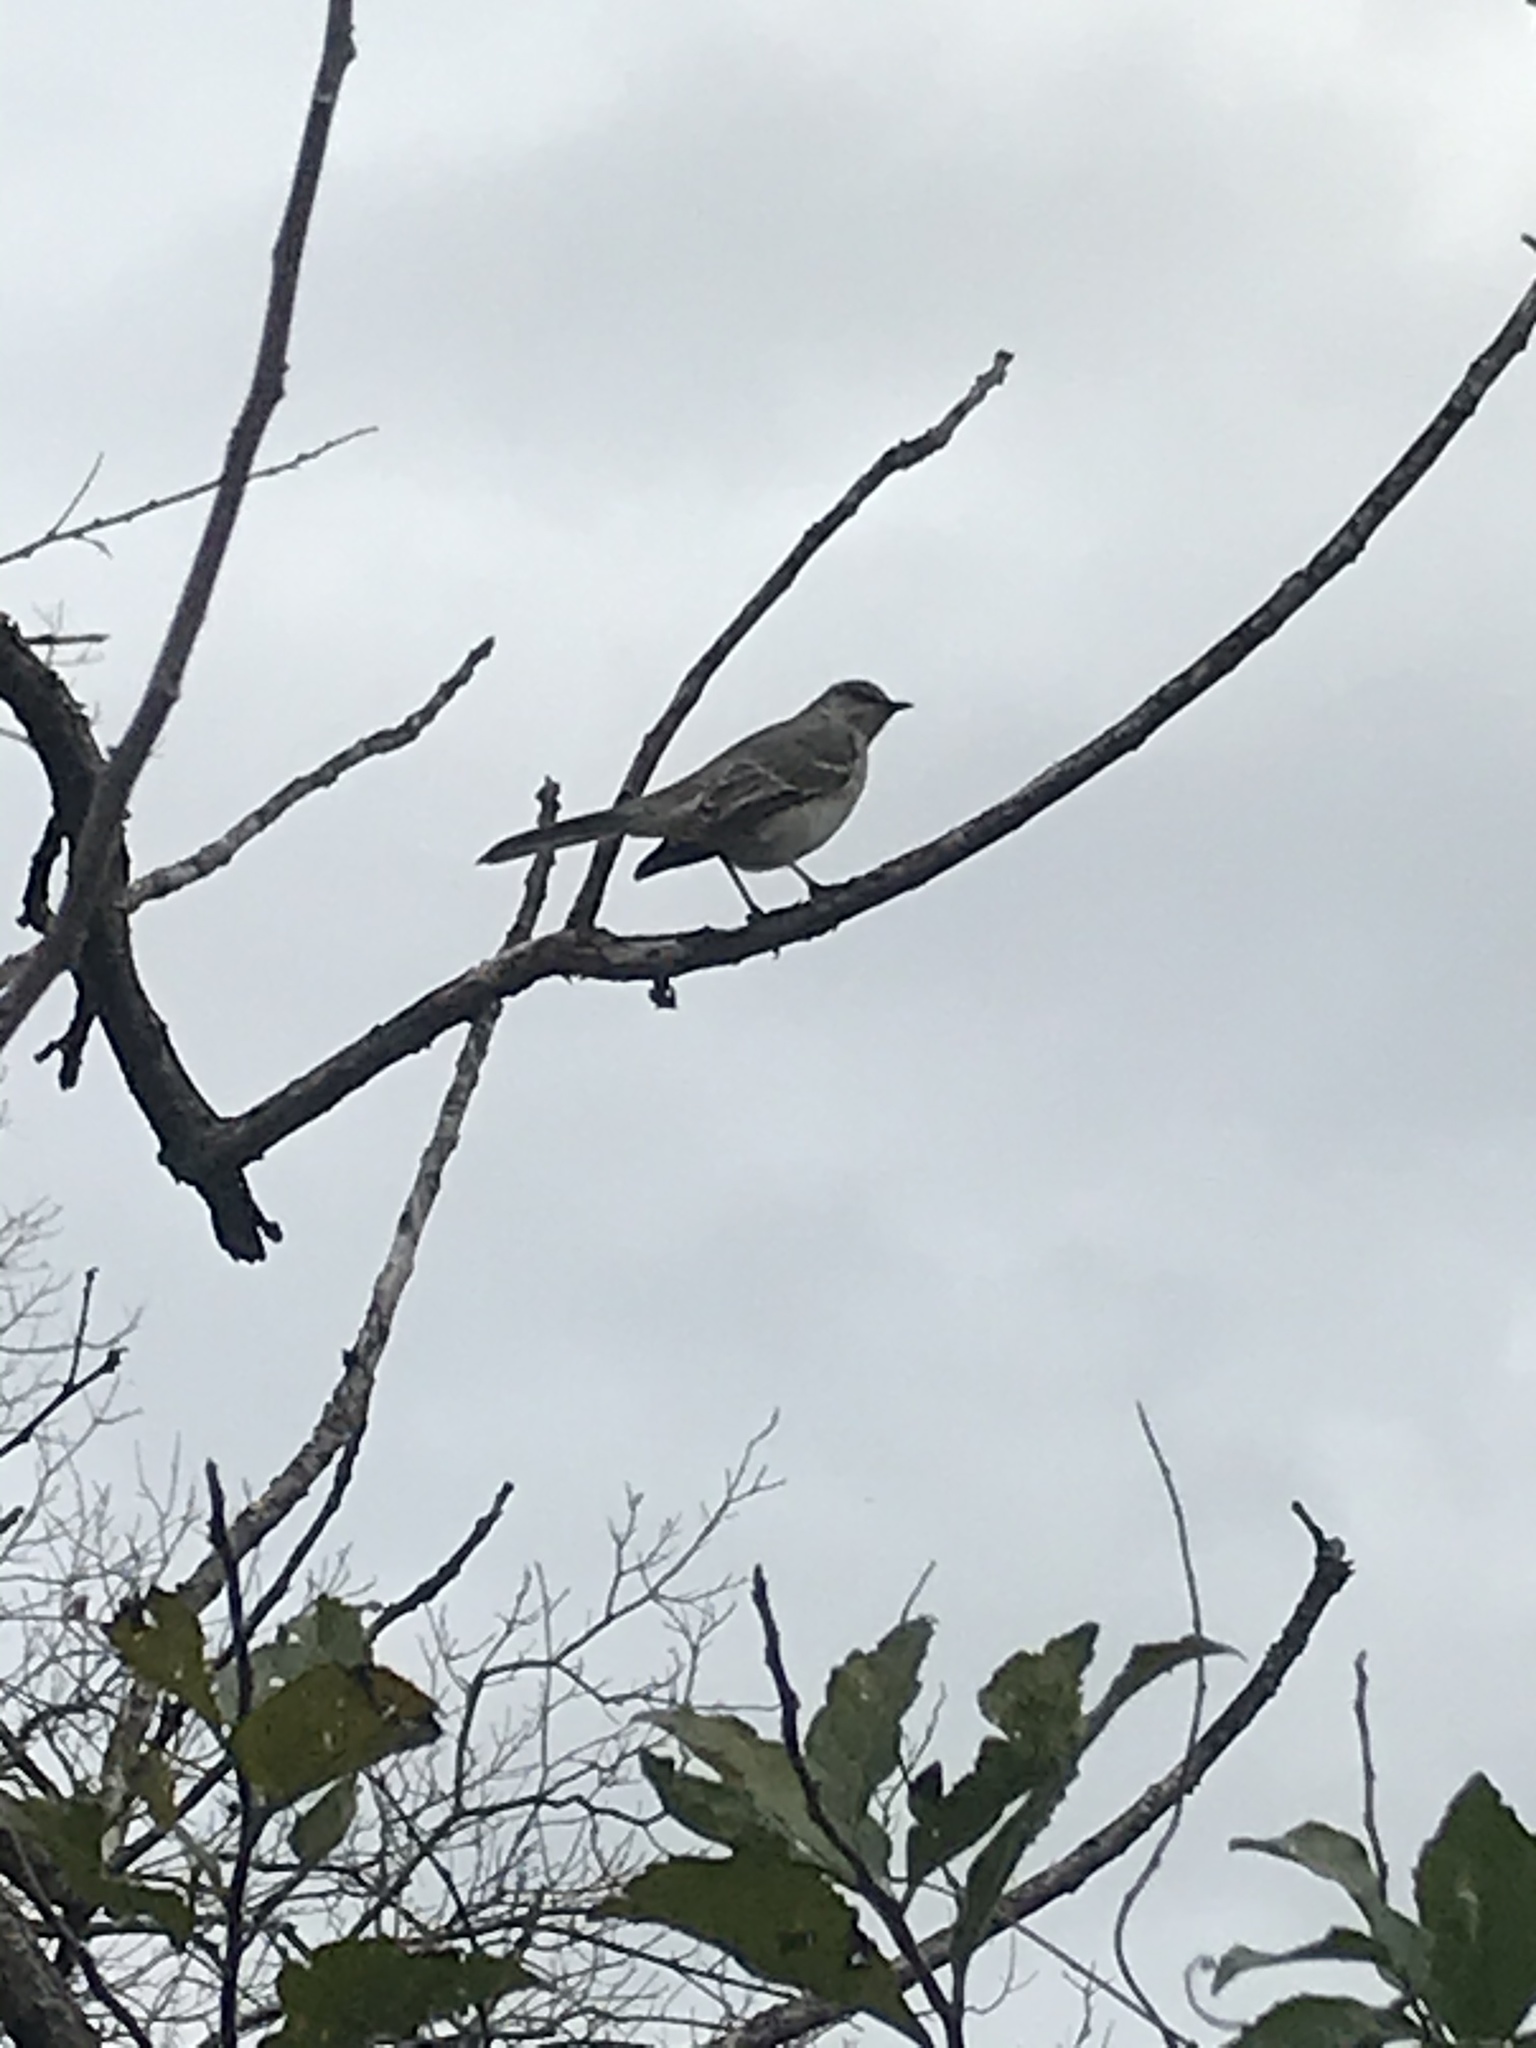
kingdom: Animalia
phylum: Chordata
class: Aves
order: Passeriformes
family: Mimidae
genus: Mimus
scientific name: Mimus polyglottos
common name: Northern mockingbird
